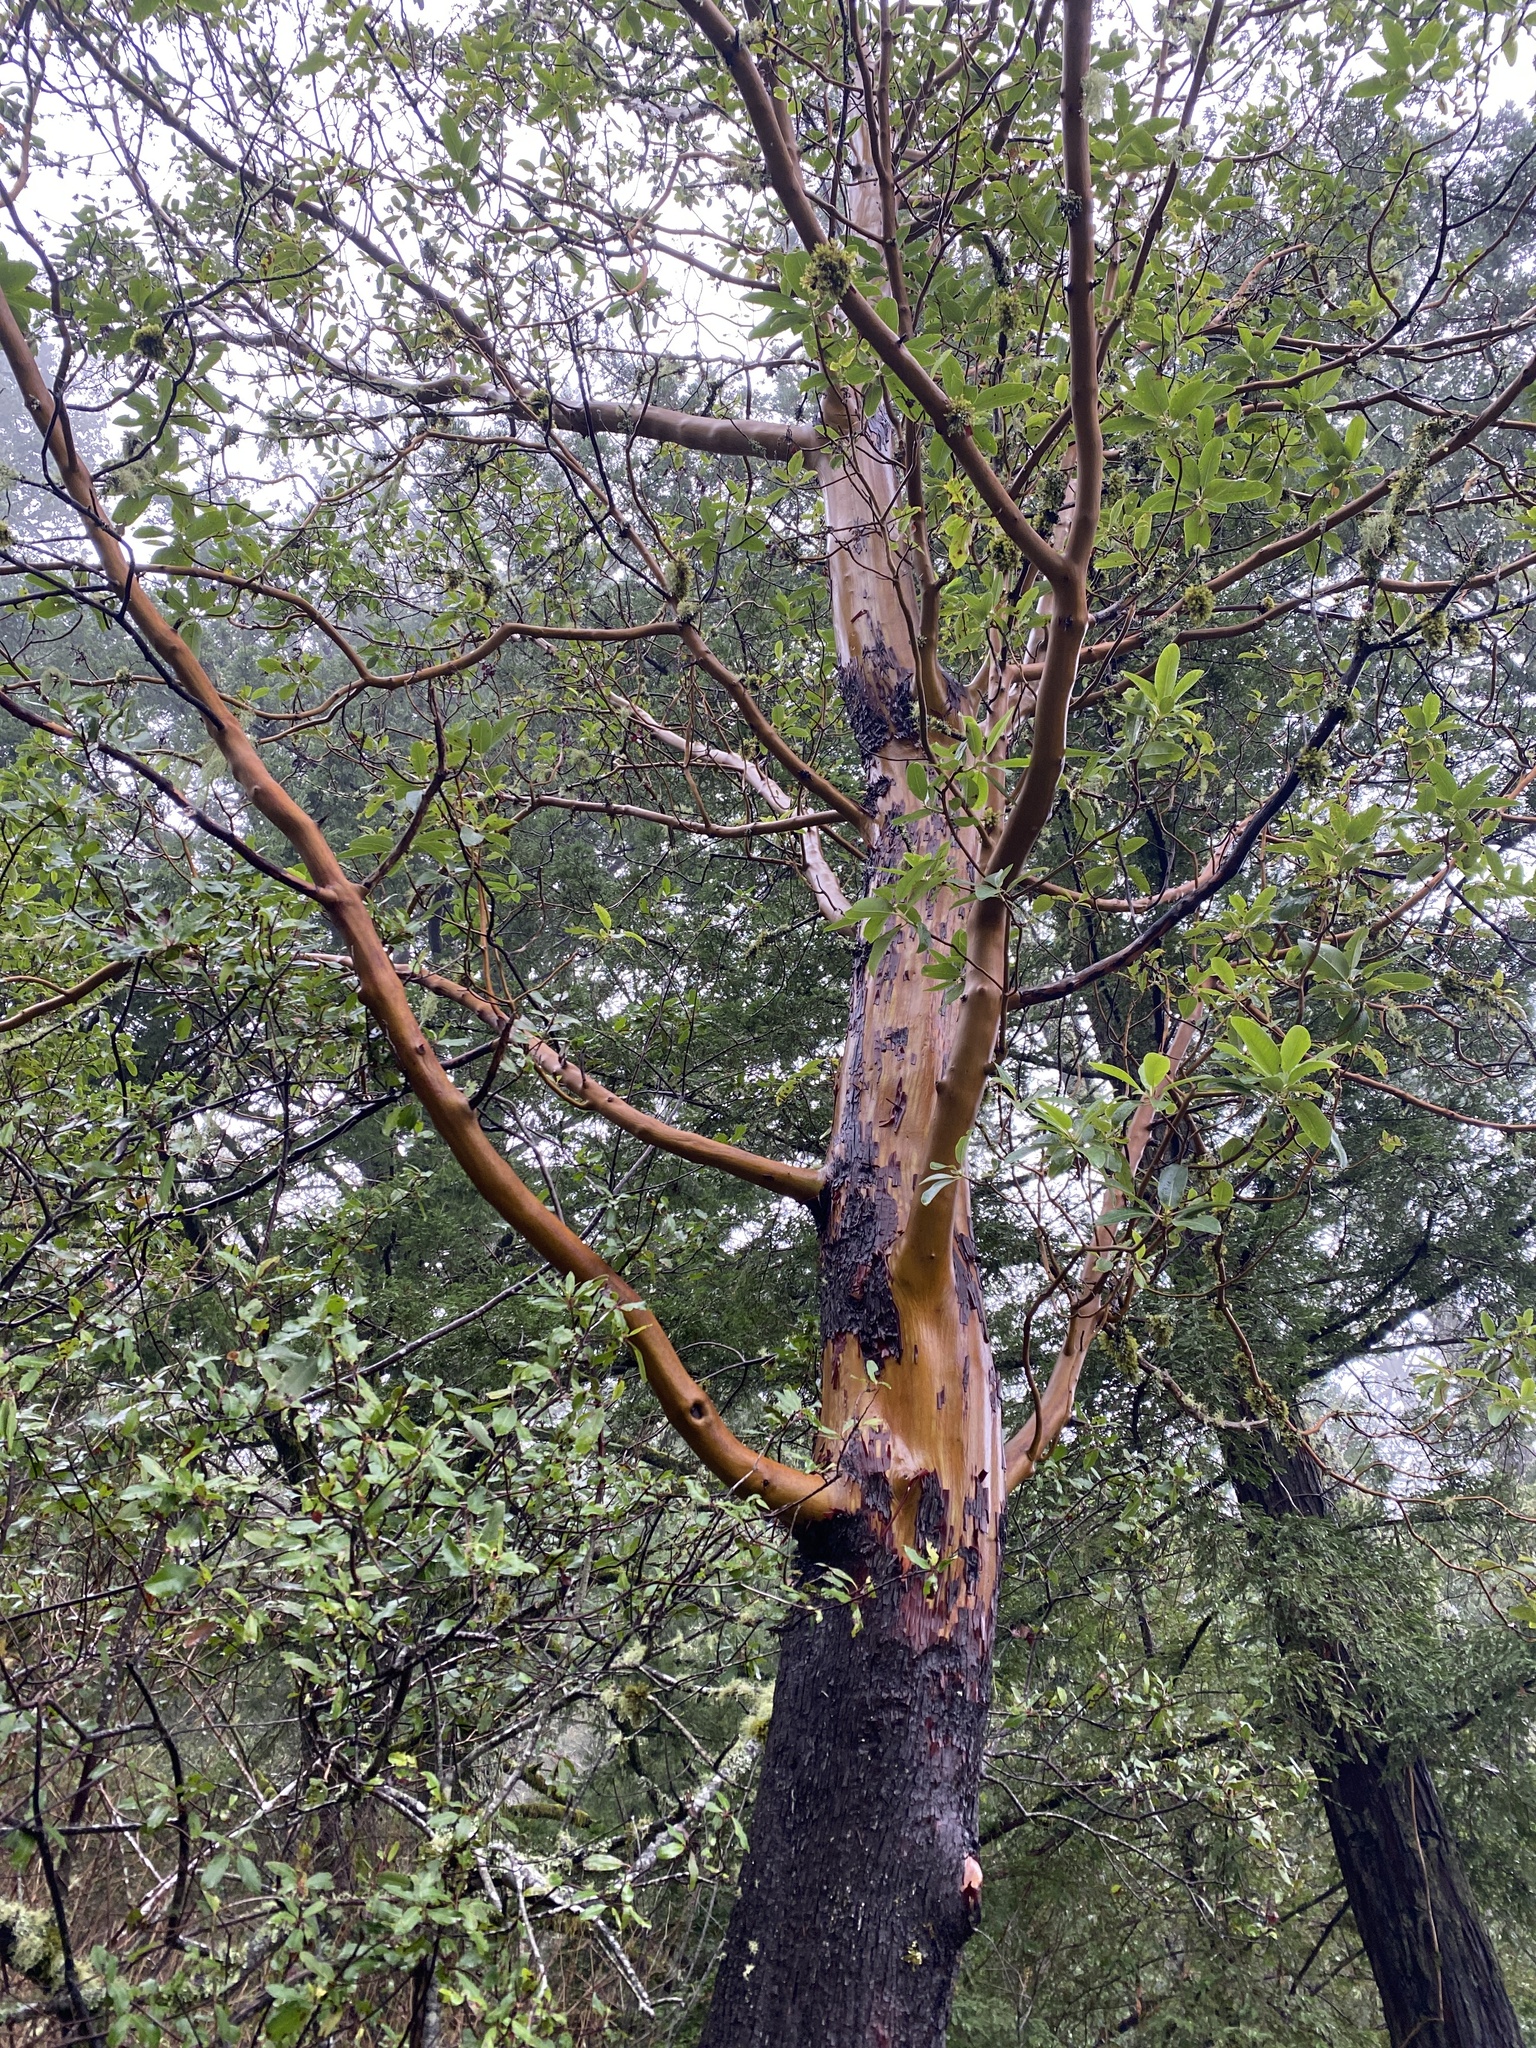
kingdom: Plantae
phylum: Tracheophyta
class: Magnoliopsida
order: Ericales
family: Ericaceae
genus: Arbutus
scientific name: Arbutus menziesii
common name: Pacific madrone
